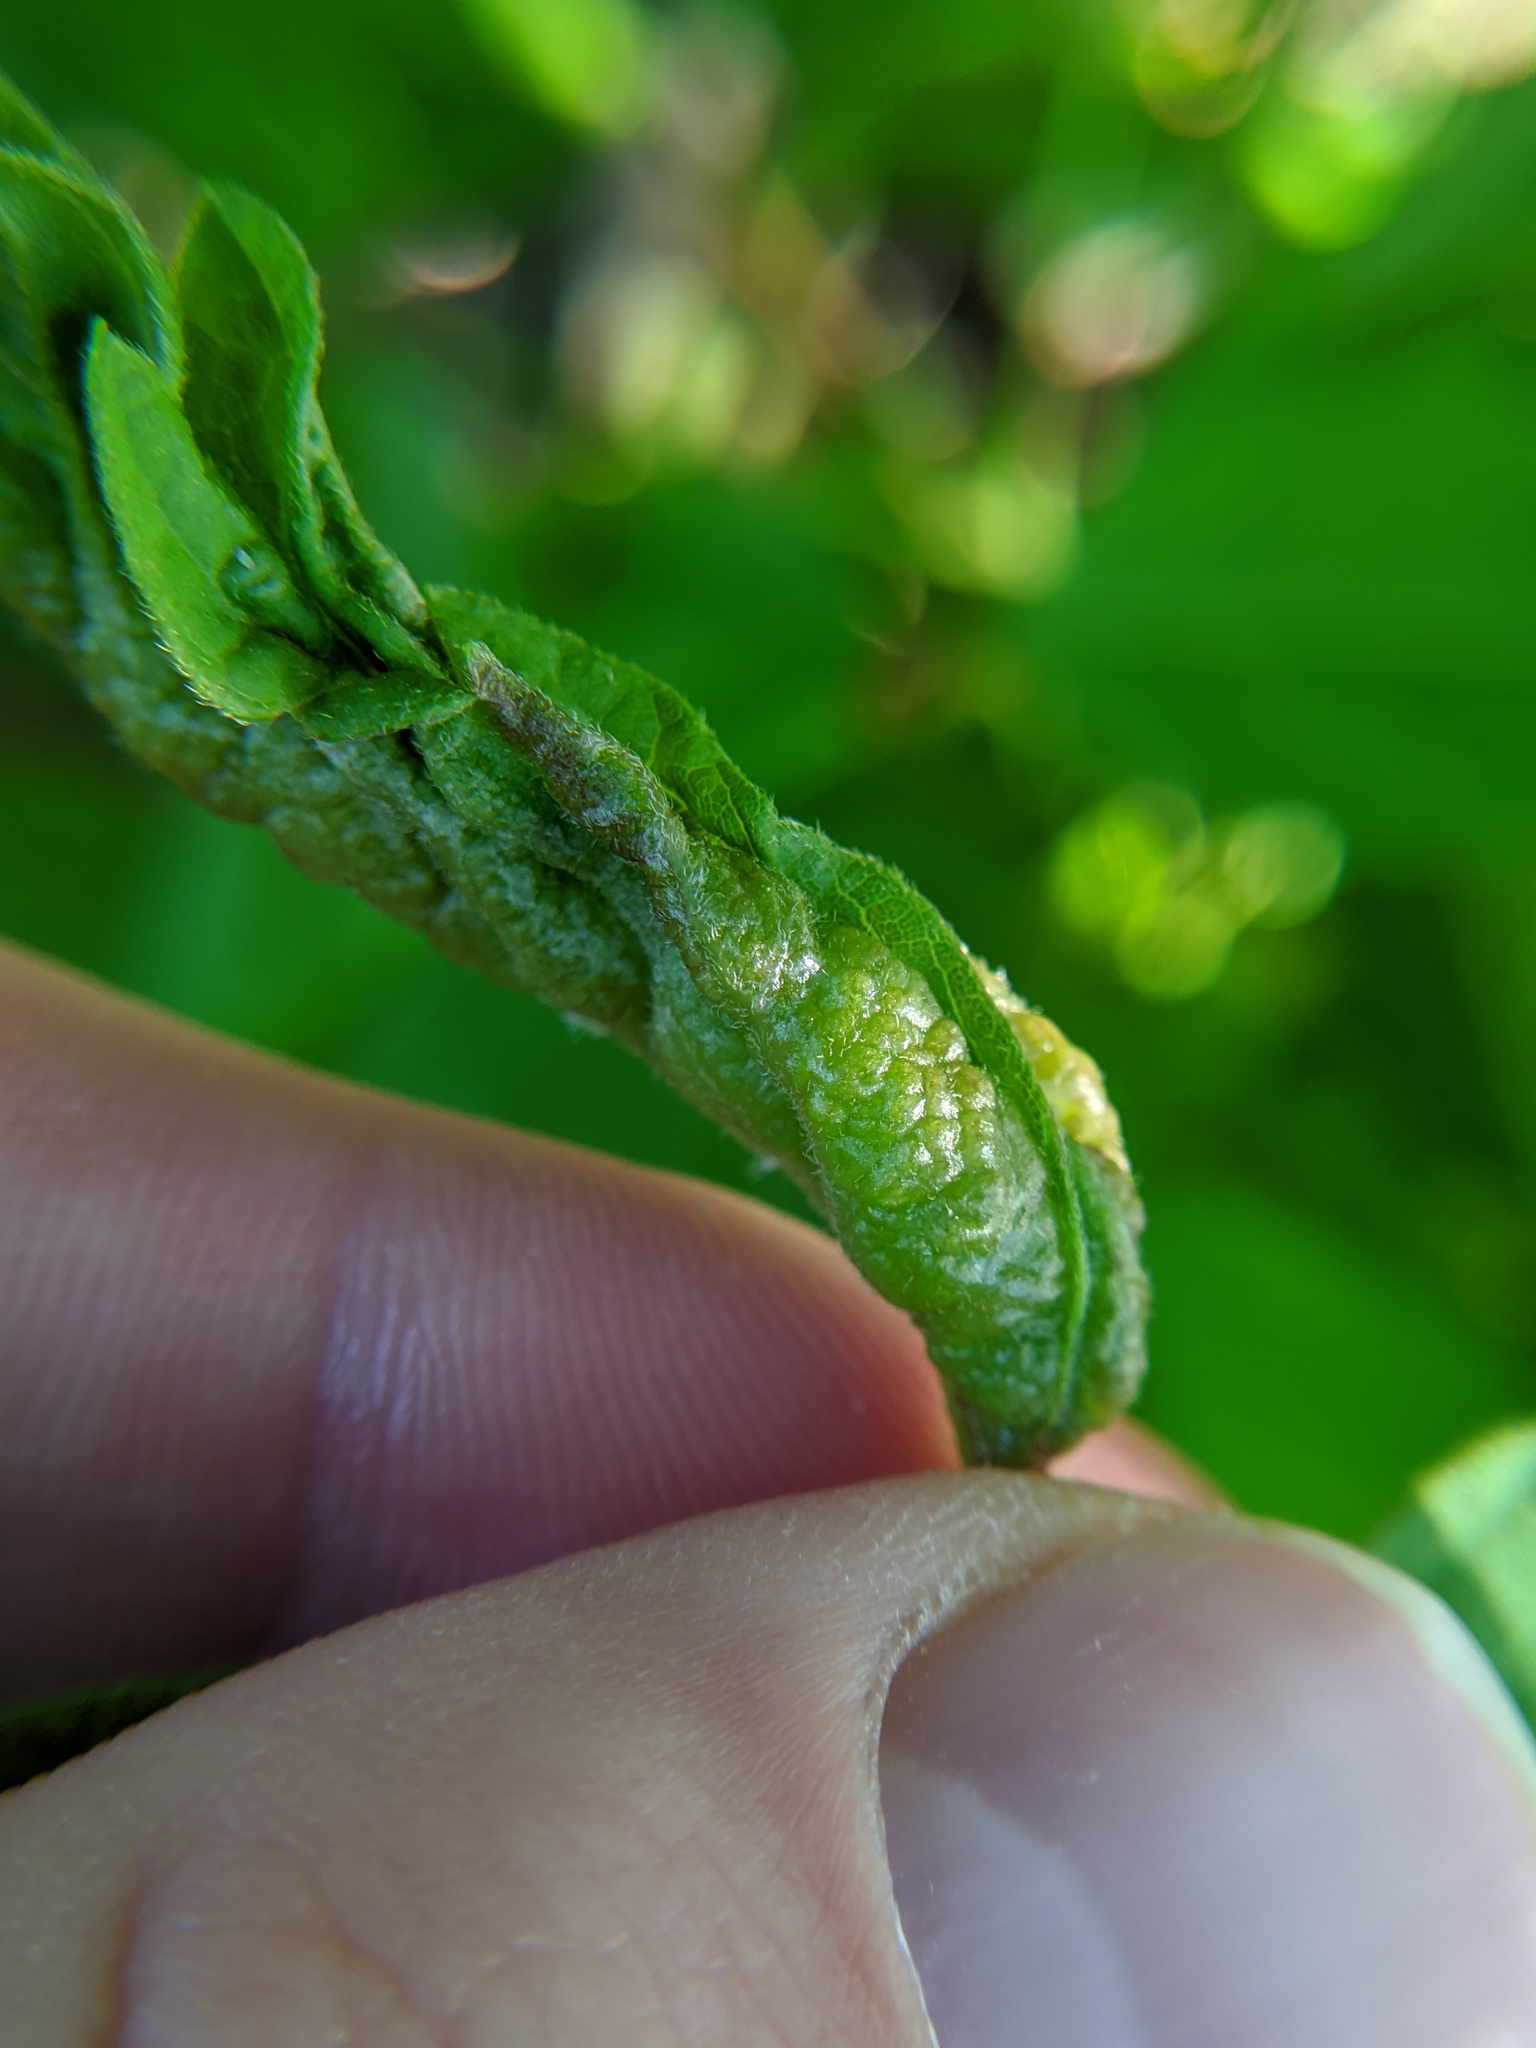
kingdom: Animalia
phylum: Arthropoda
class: Insecta
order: Diptera
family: Cecidomyiidae
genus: Contarinia
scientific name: Contarinia negundinis
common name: Boxelder budgall midge
